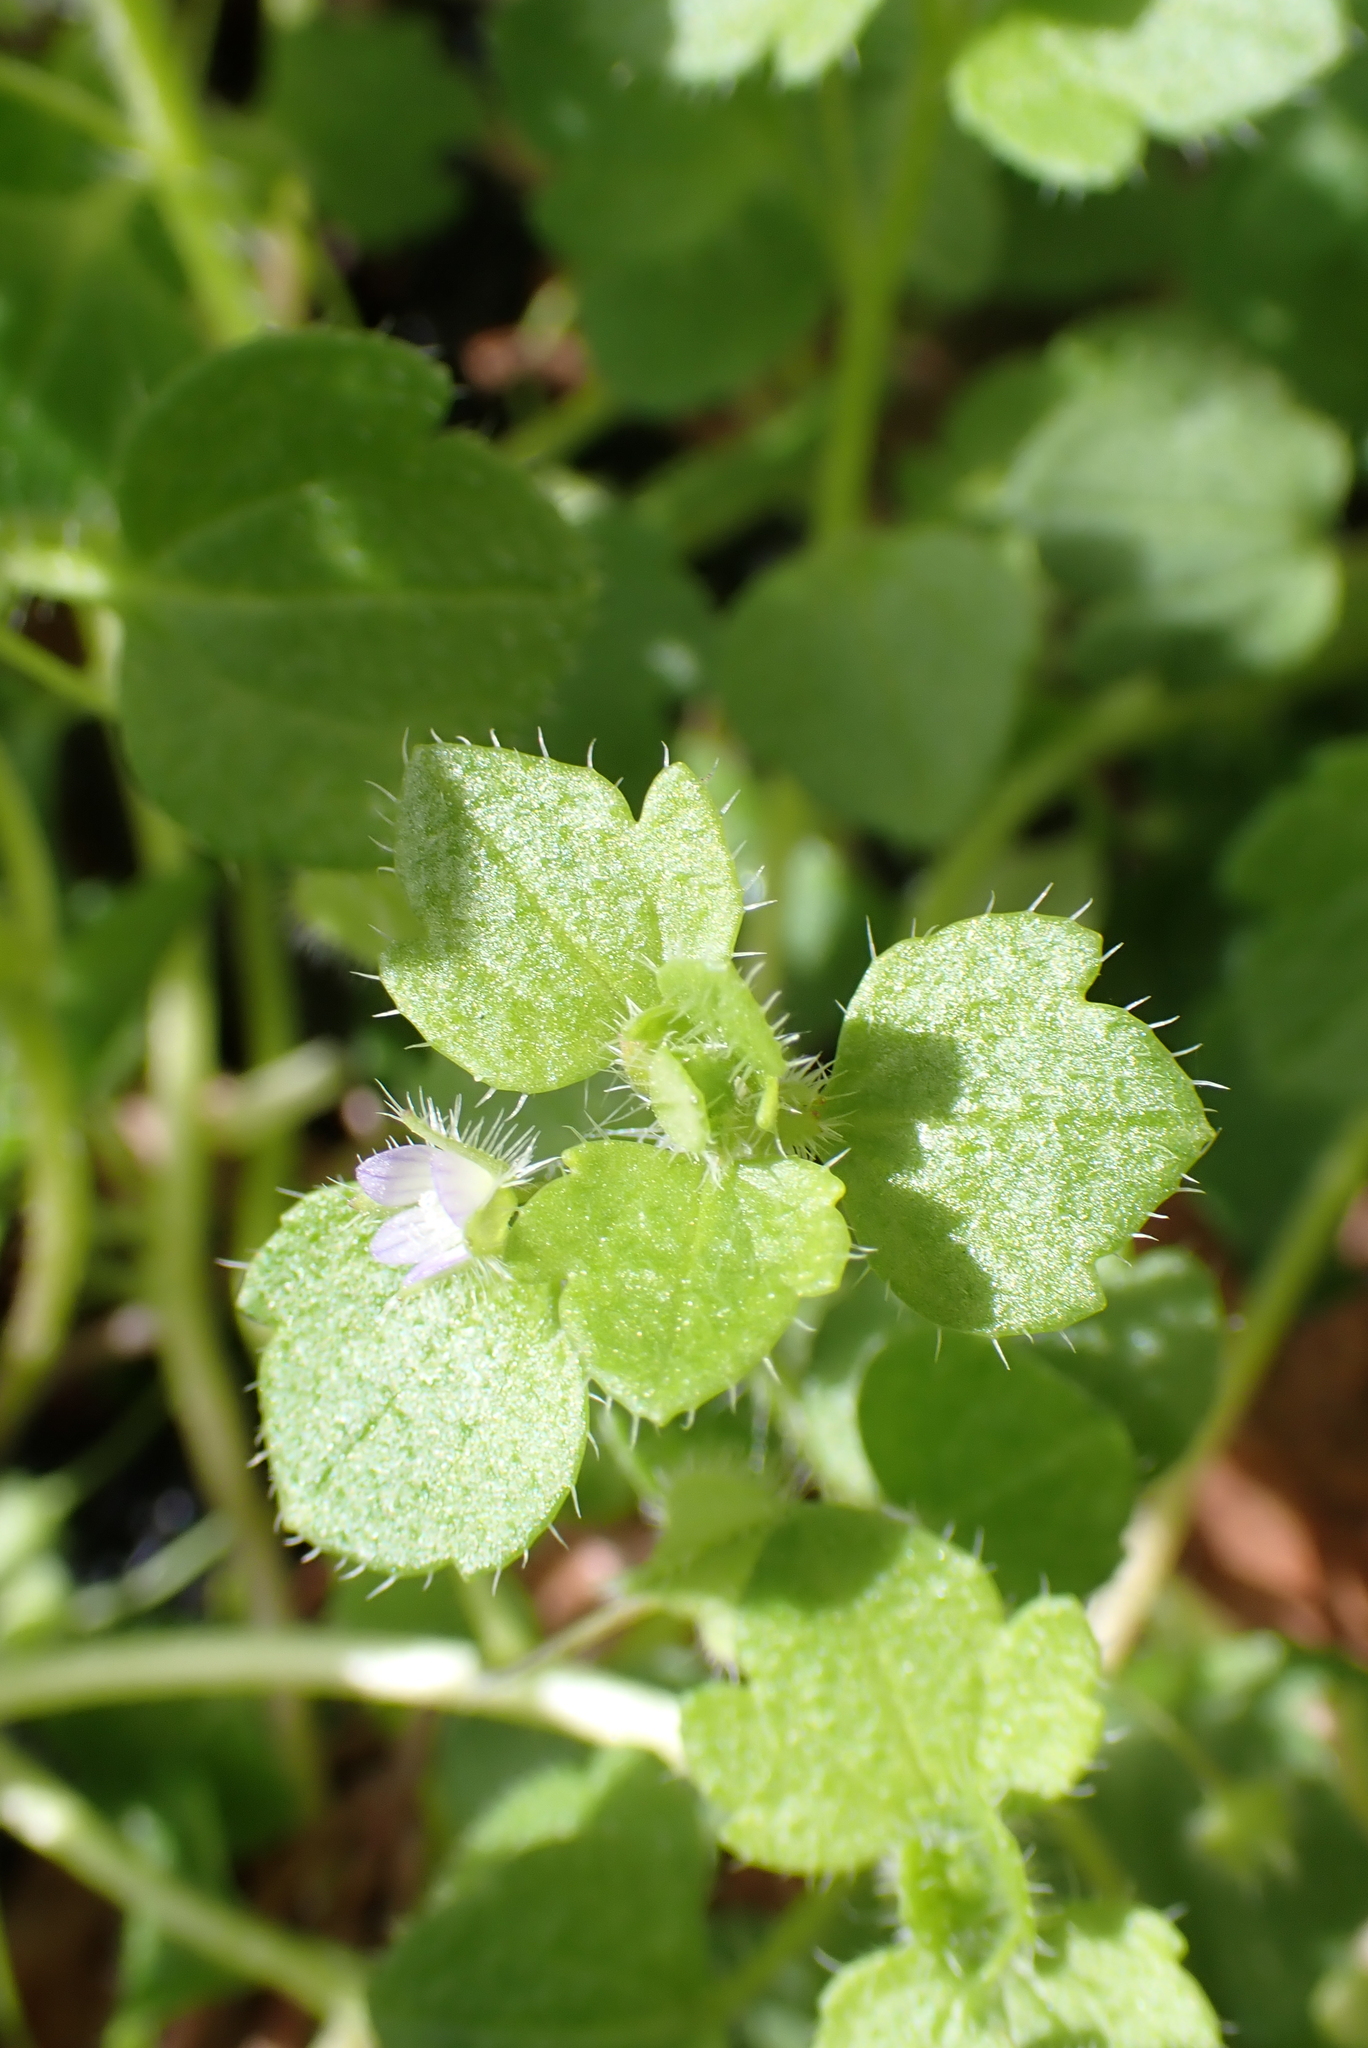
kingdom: Plantae
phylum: Tracheophyta
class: Magnoliopsida
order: Lamiales
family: Plantaginaceae
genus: Veronica
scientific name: Veronica sublobata
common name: False ivy-leaved speedwell
